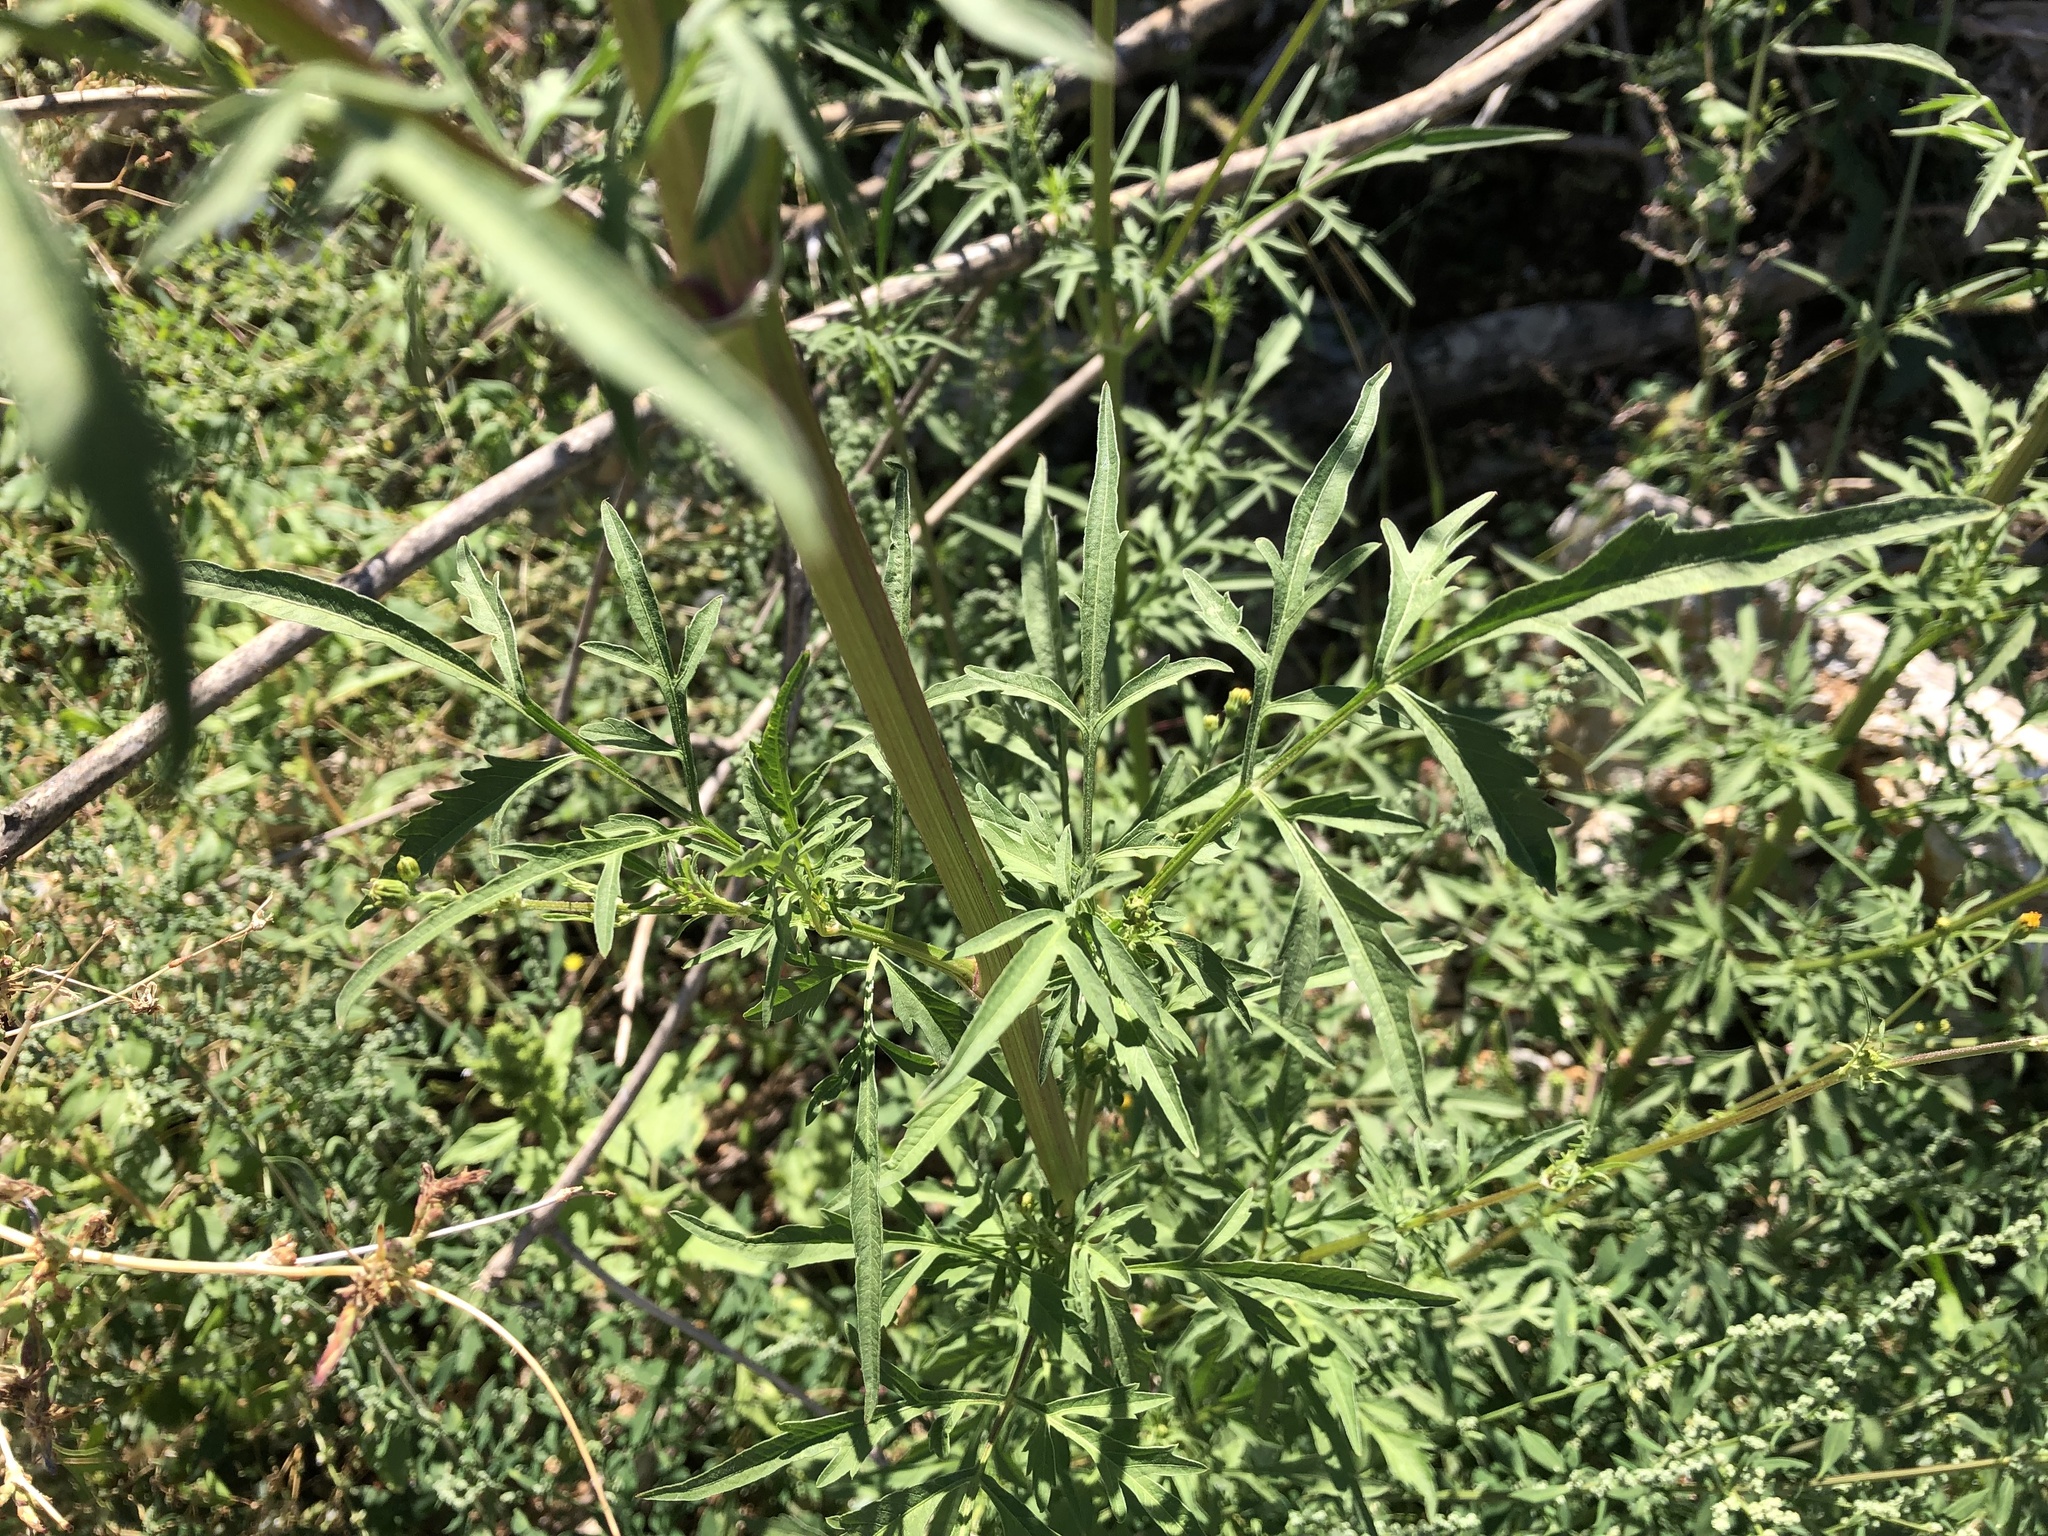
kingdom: Plantae
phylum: Tracheophyta
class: Magnoliopsida
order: Asterales
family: Asteraceae
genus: Bidens
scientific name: Bidens subalternans
